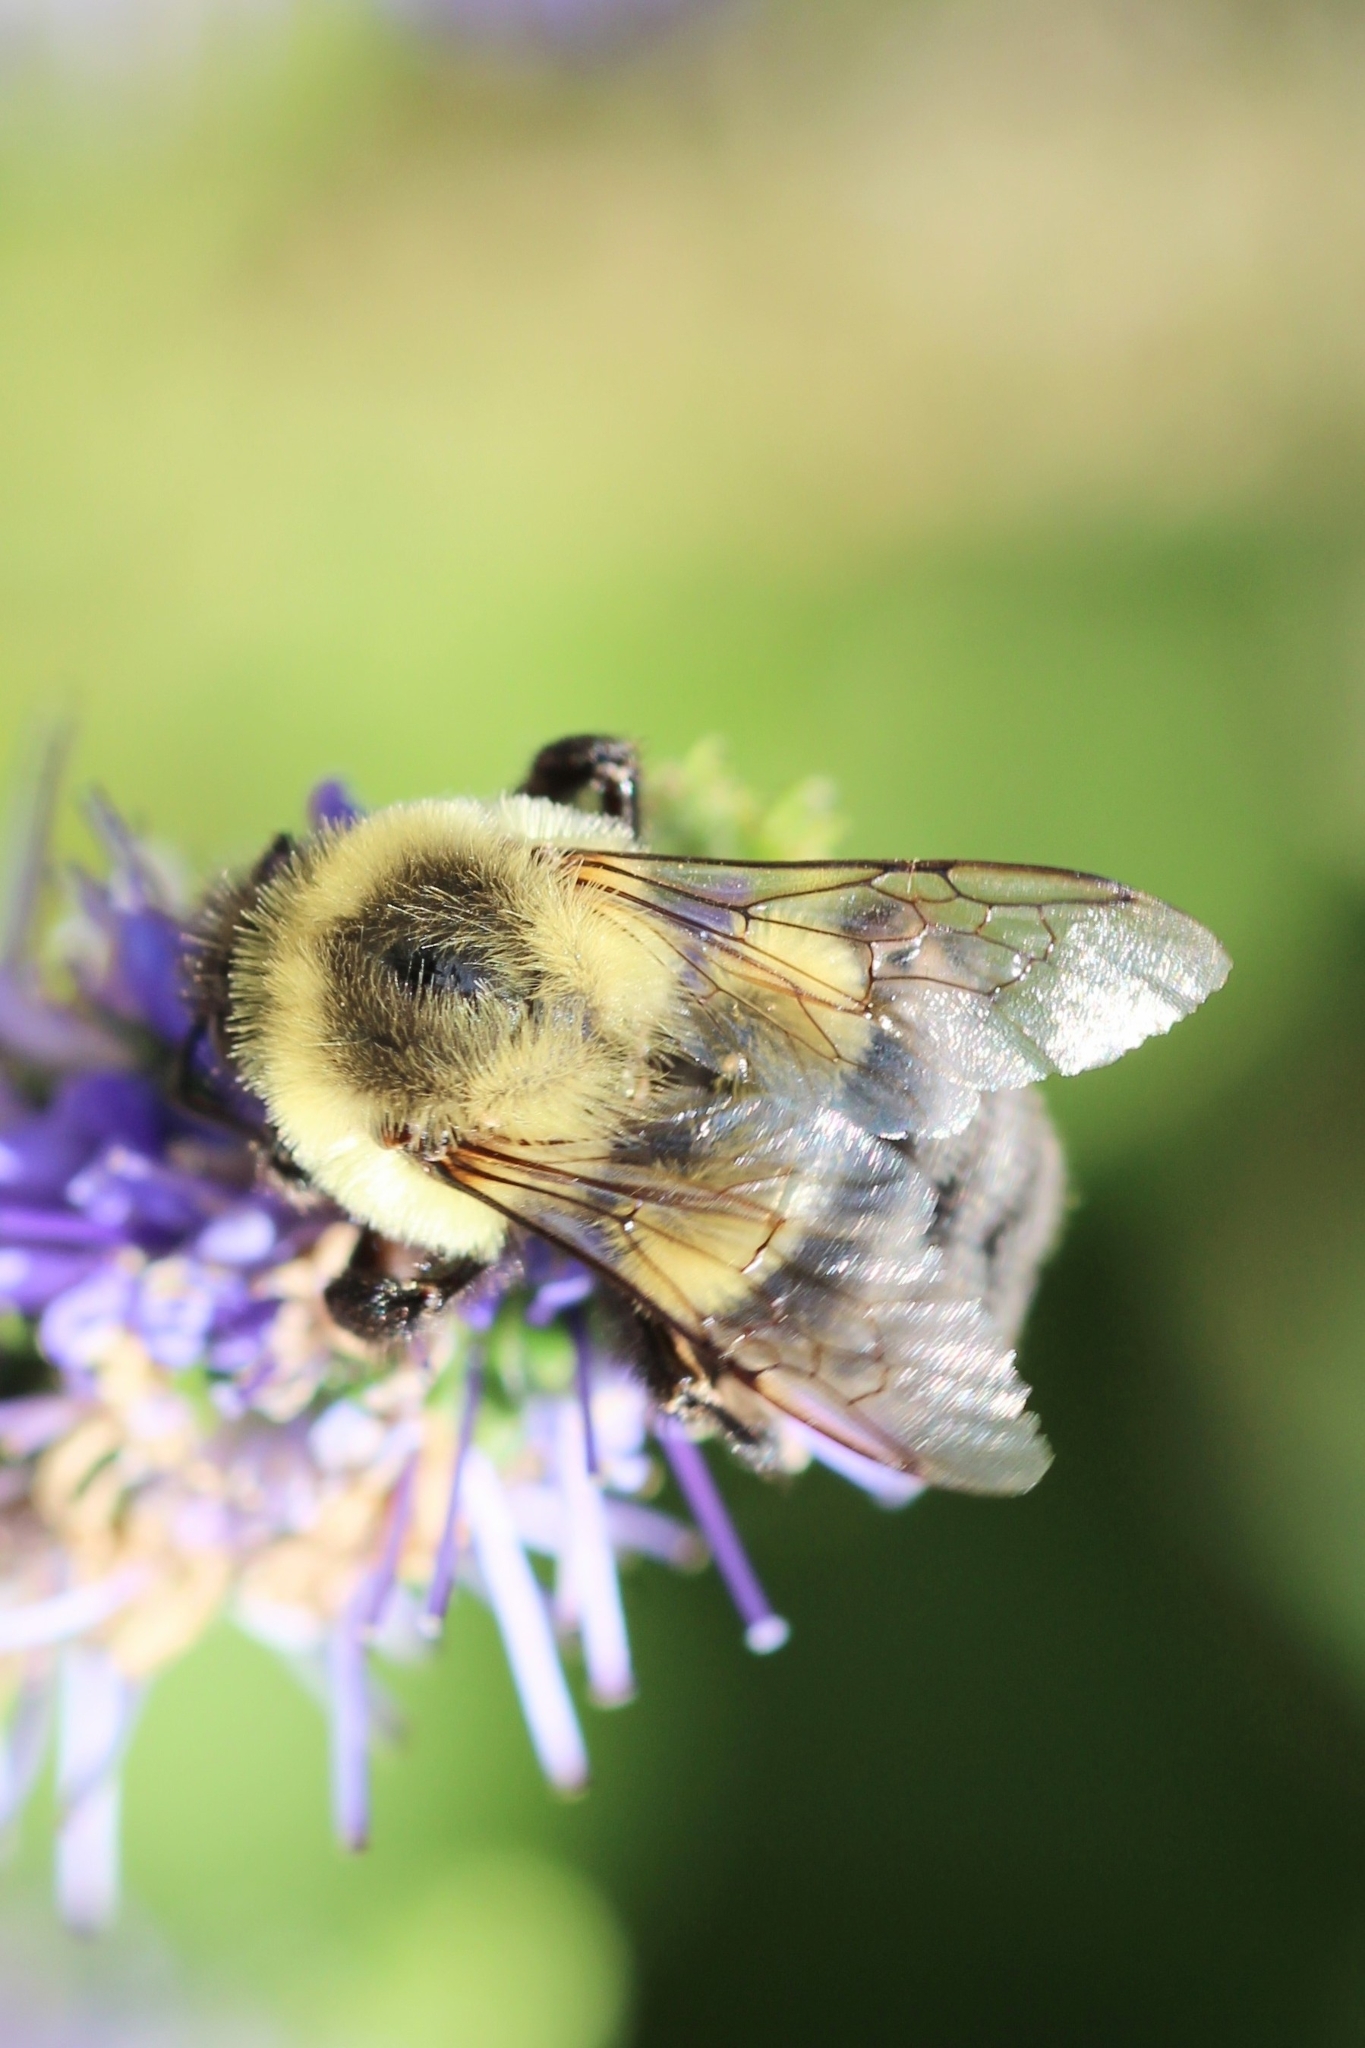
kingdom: Animalia
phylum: Arthropoda
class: Insecta
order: Hymenoptera
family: Apidae
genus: Bombus
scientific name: Bombus impatiens
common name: Common eastern bumble bee
